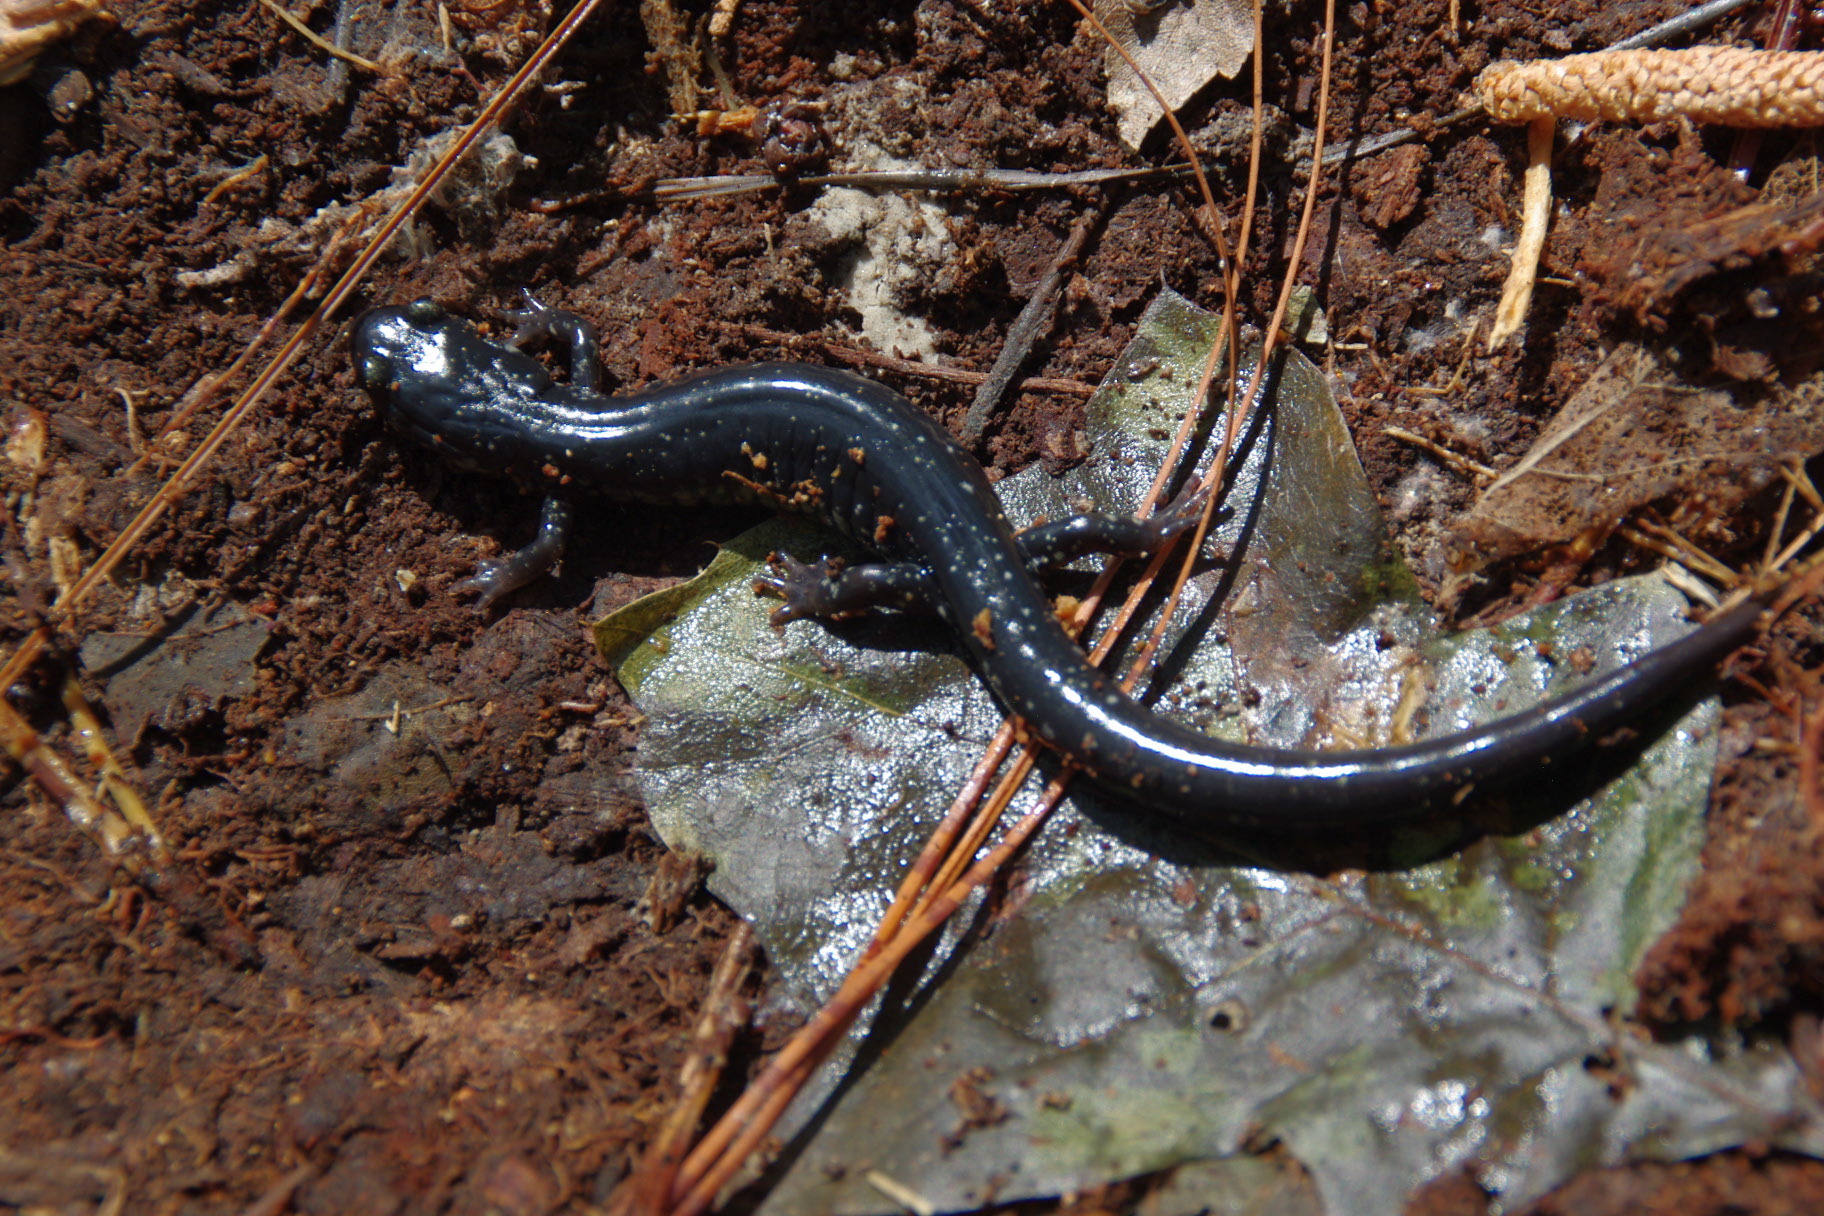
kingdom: Animalia
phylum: Chordata
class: Amphibia
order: Caudata
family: Plethodontidae
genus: Plethodon
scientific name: Plethodon chlorobryonis
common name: Atlantic coast slimy salamander
